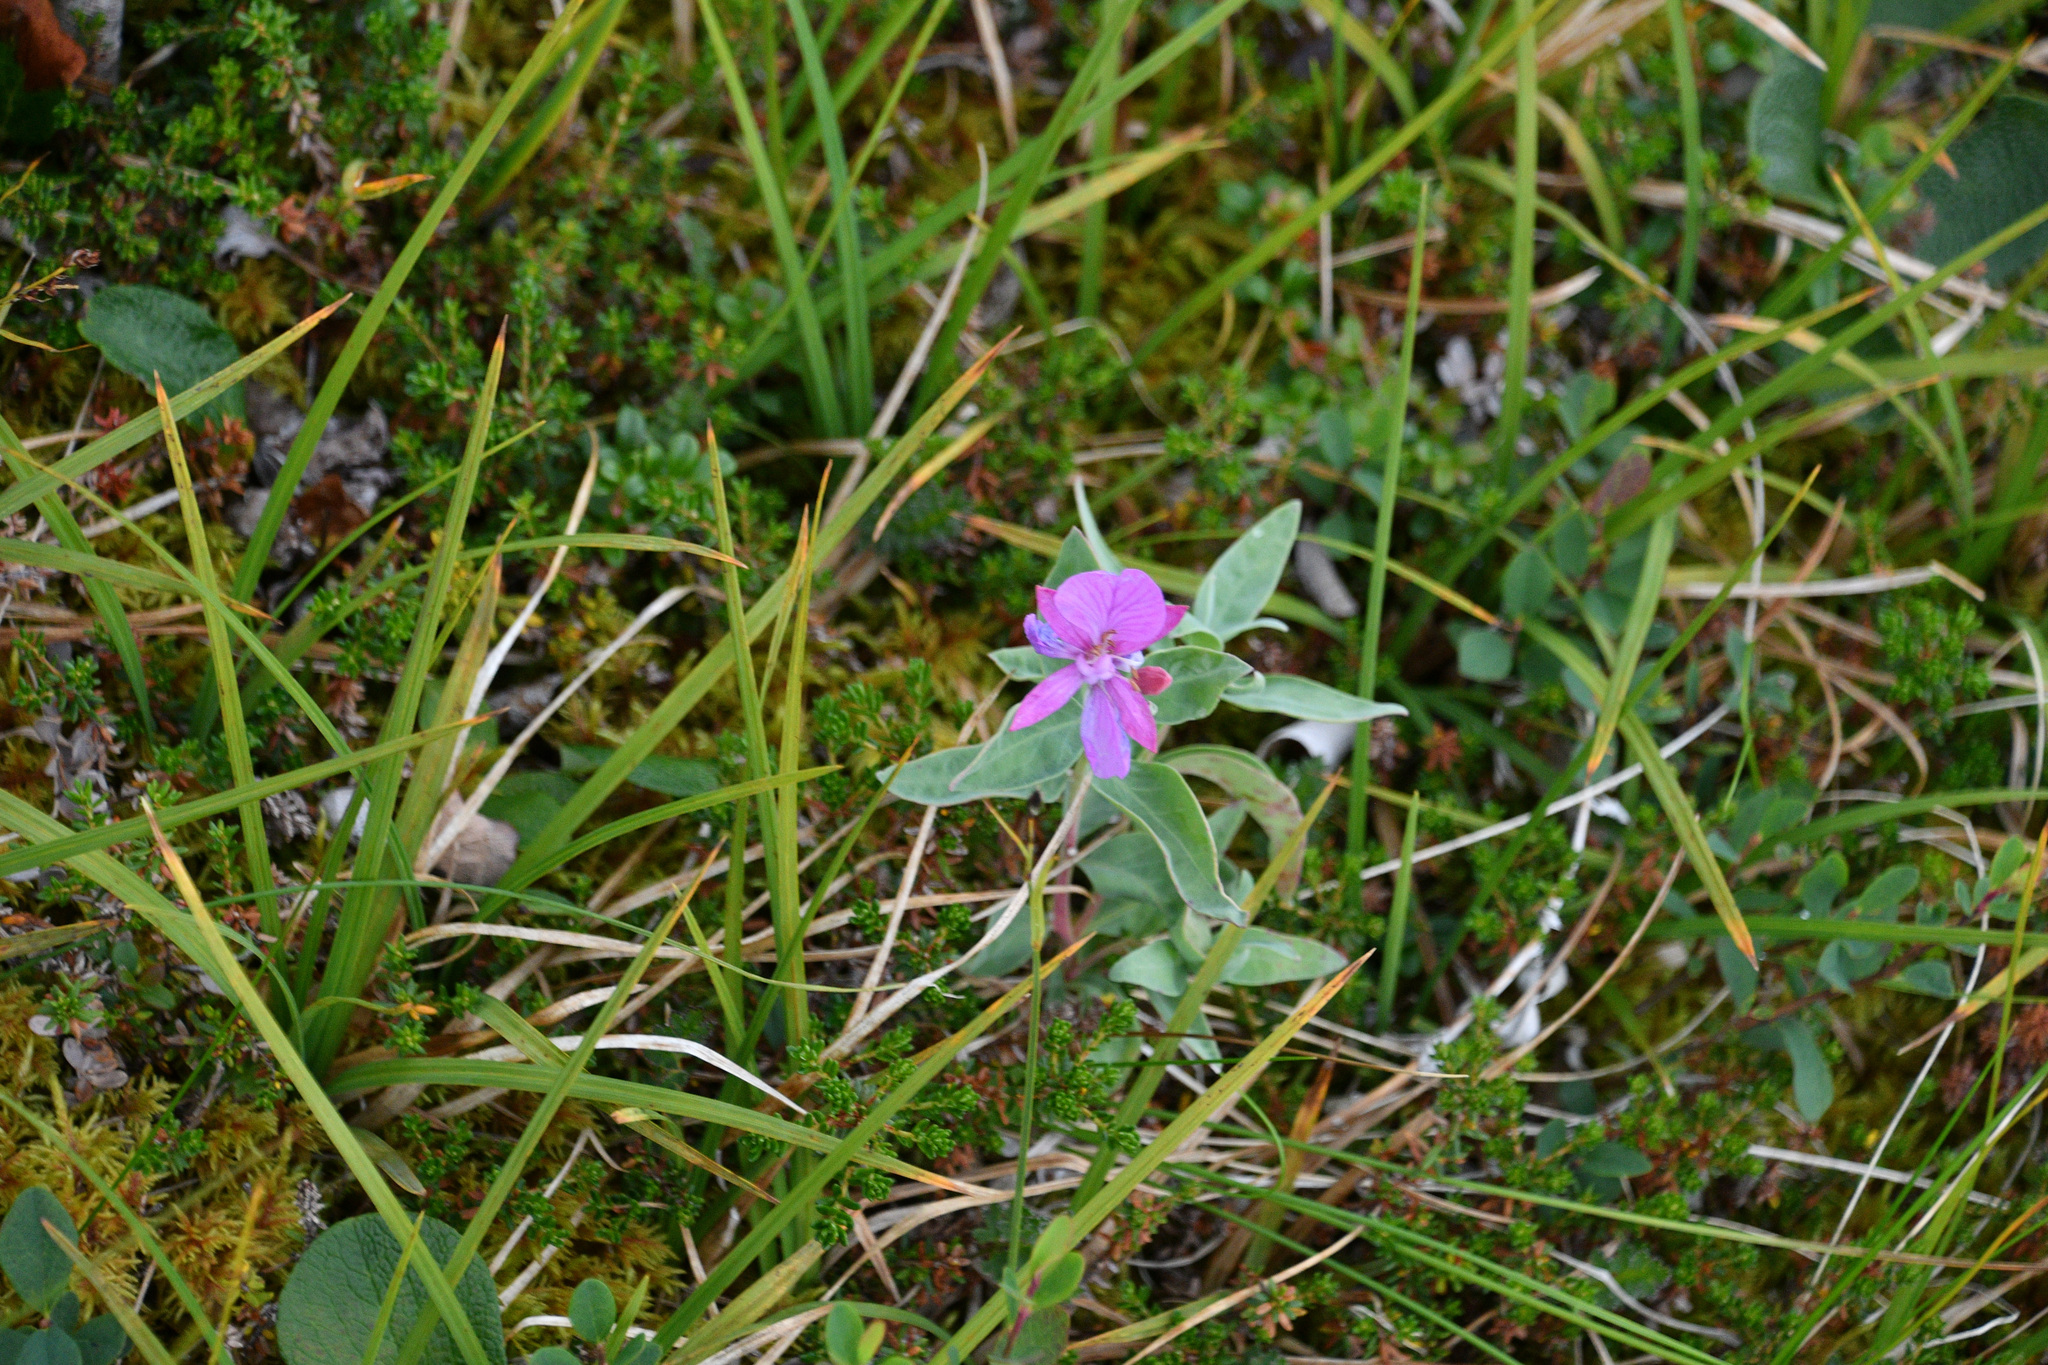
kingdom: Plantae
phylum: Tracheophyta
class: Magnoliopsida
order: Myrtales
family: Onagraceae
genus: Chamaenerion
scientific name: Chamaenerion latifolium
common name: Dwarf fireweed
